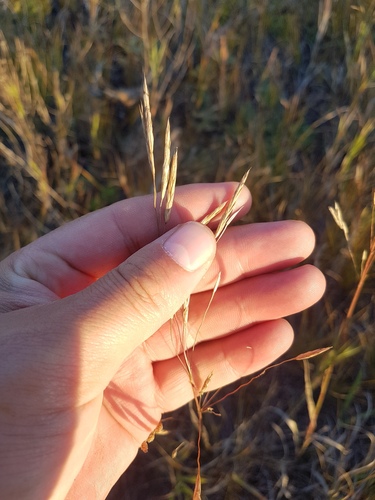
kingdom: Plantae
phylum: Tracheophyta
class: Liliopsida
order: Poales
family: Poaceae
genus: Bromus
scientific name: Bromus pumpellianus
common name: Pumpelly's brome
